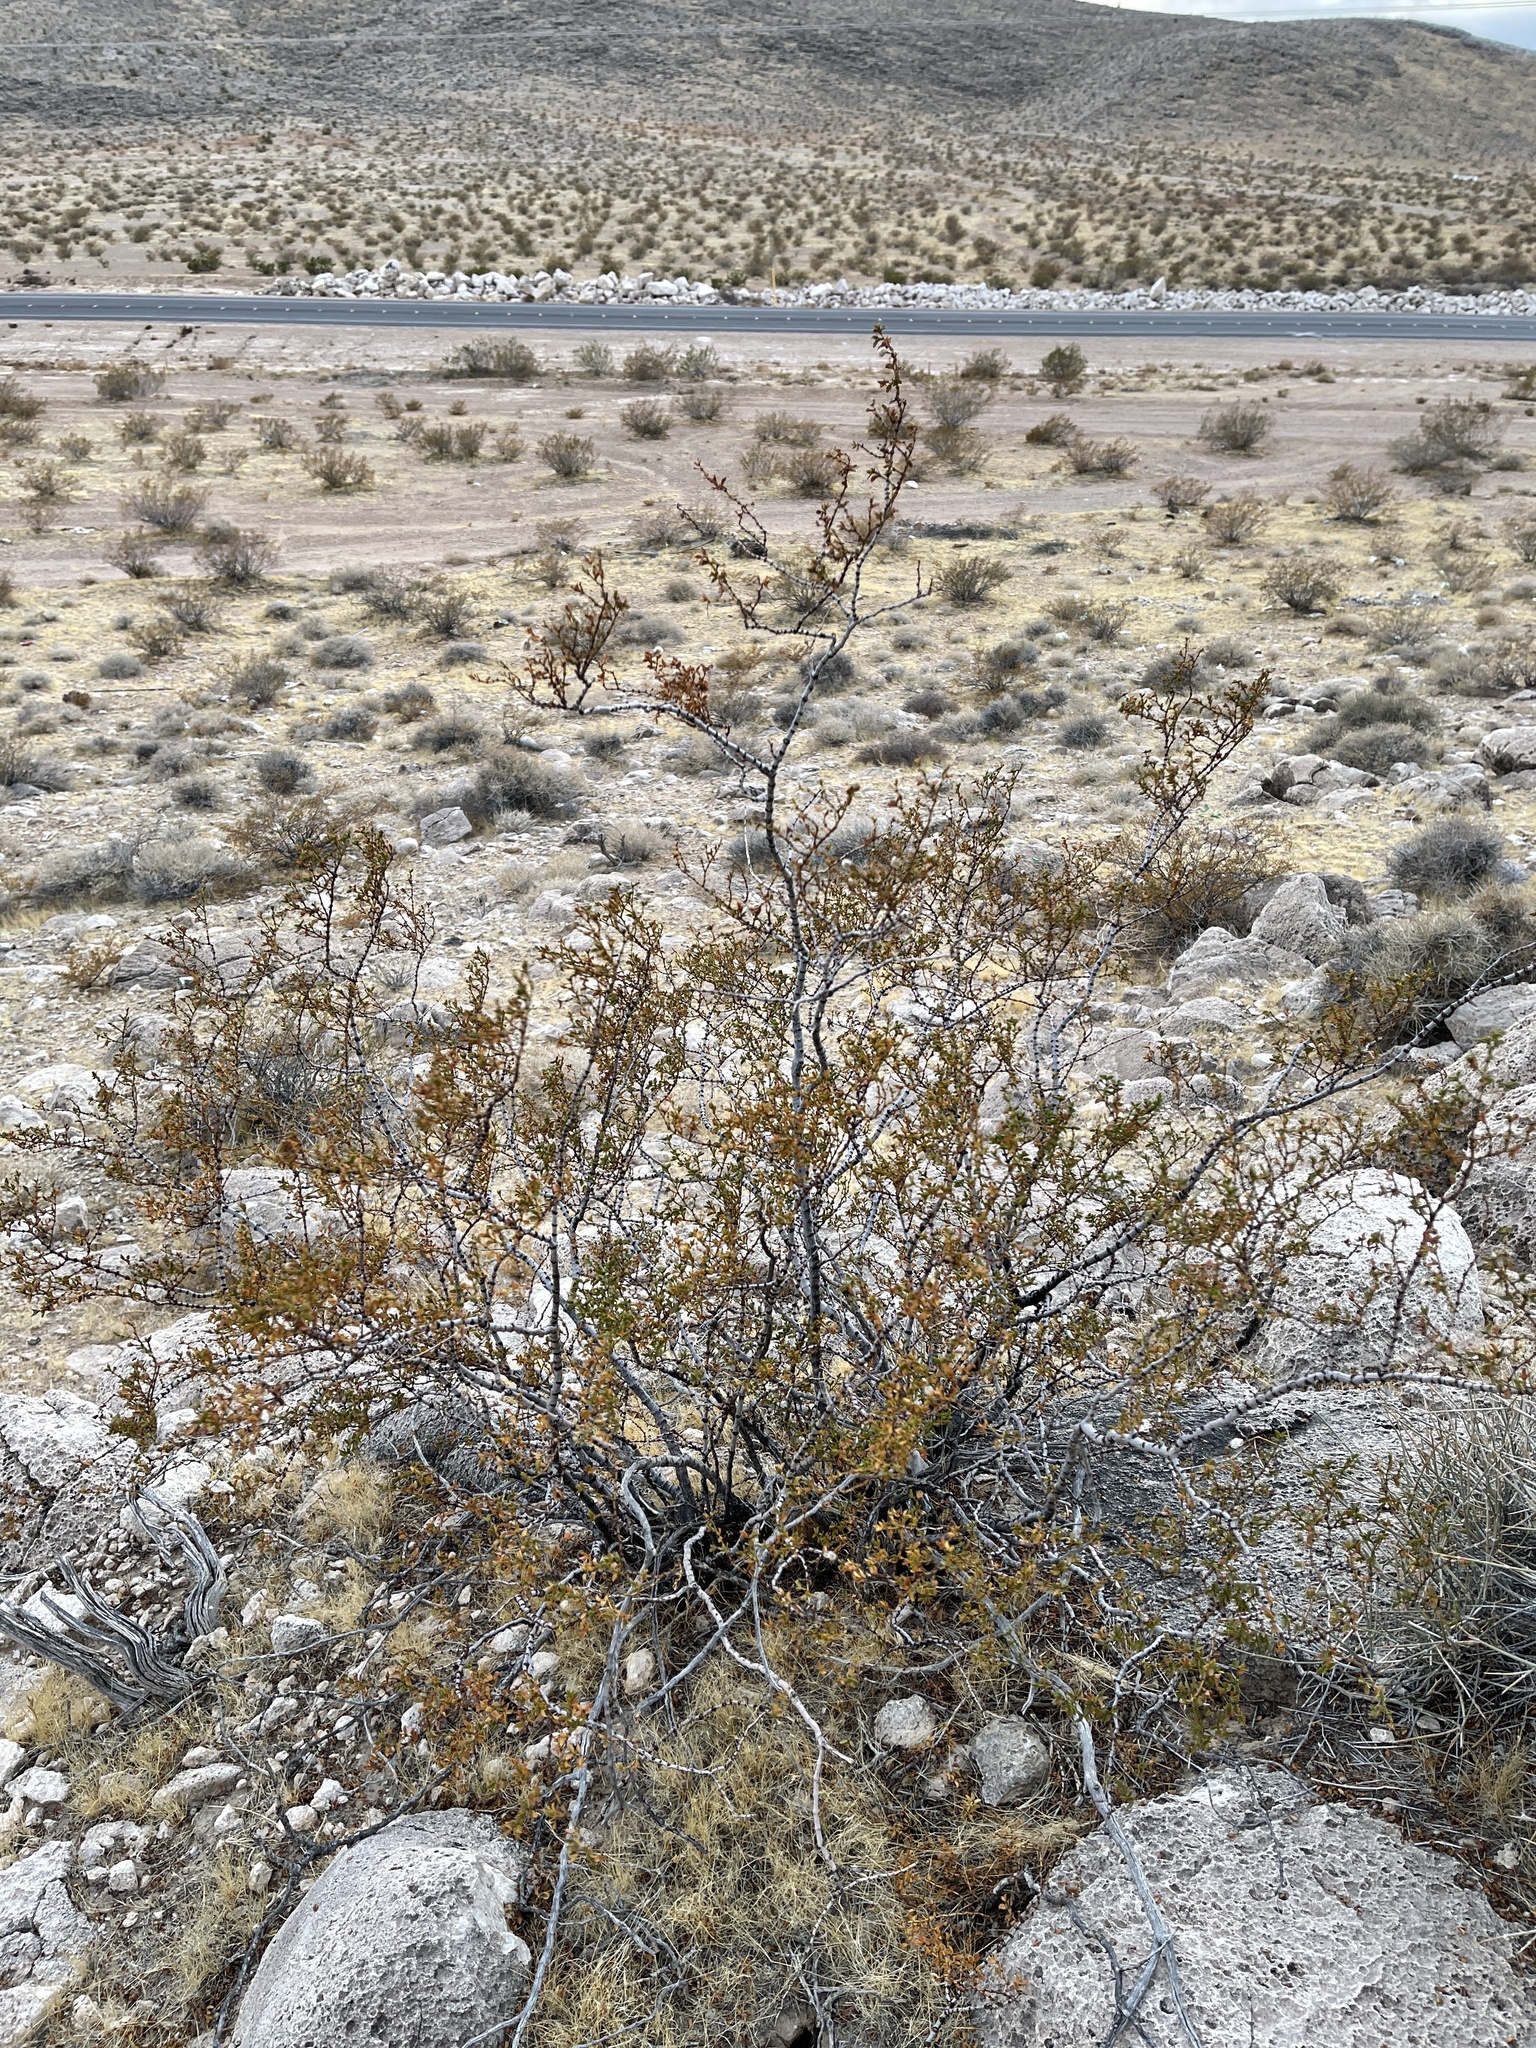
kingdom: Plantae
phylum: Tracheophyta
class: Magnoliopsida
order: Zygophyllales
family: Zygophyllaceae
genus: Larrea
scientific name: Larrea tridentata
